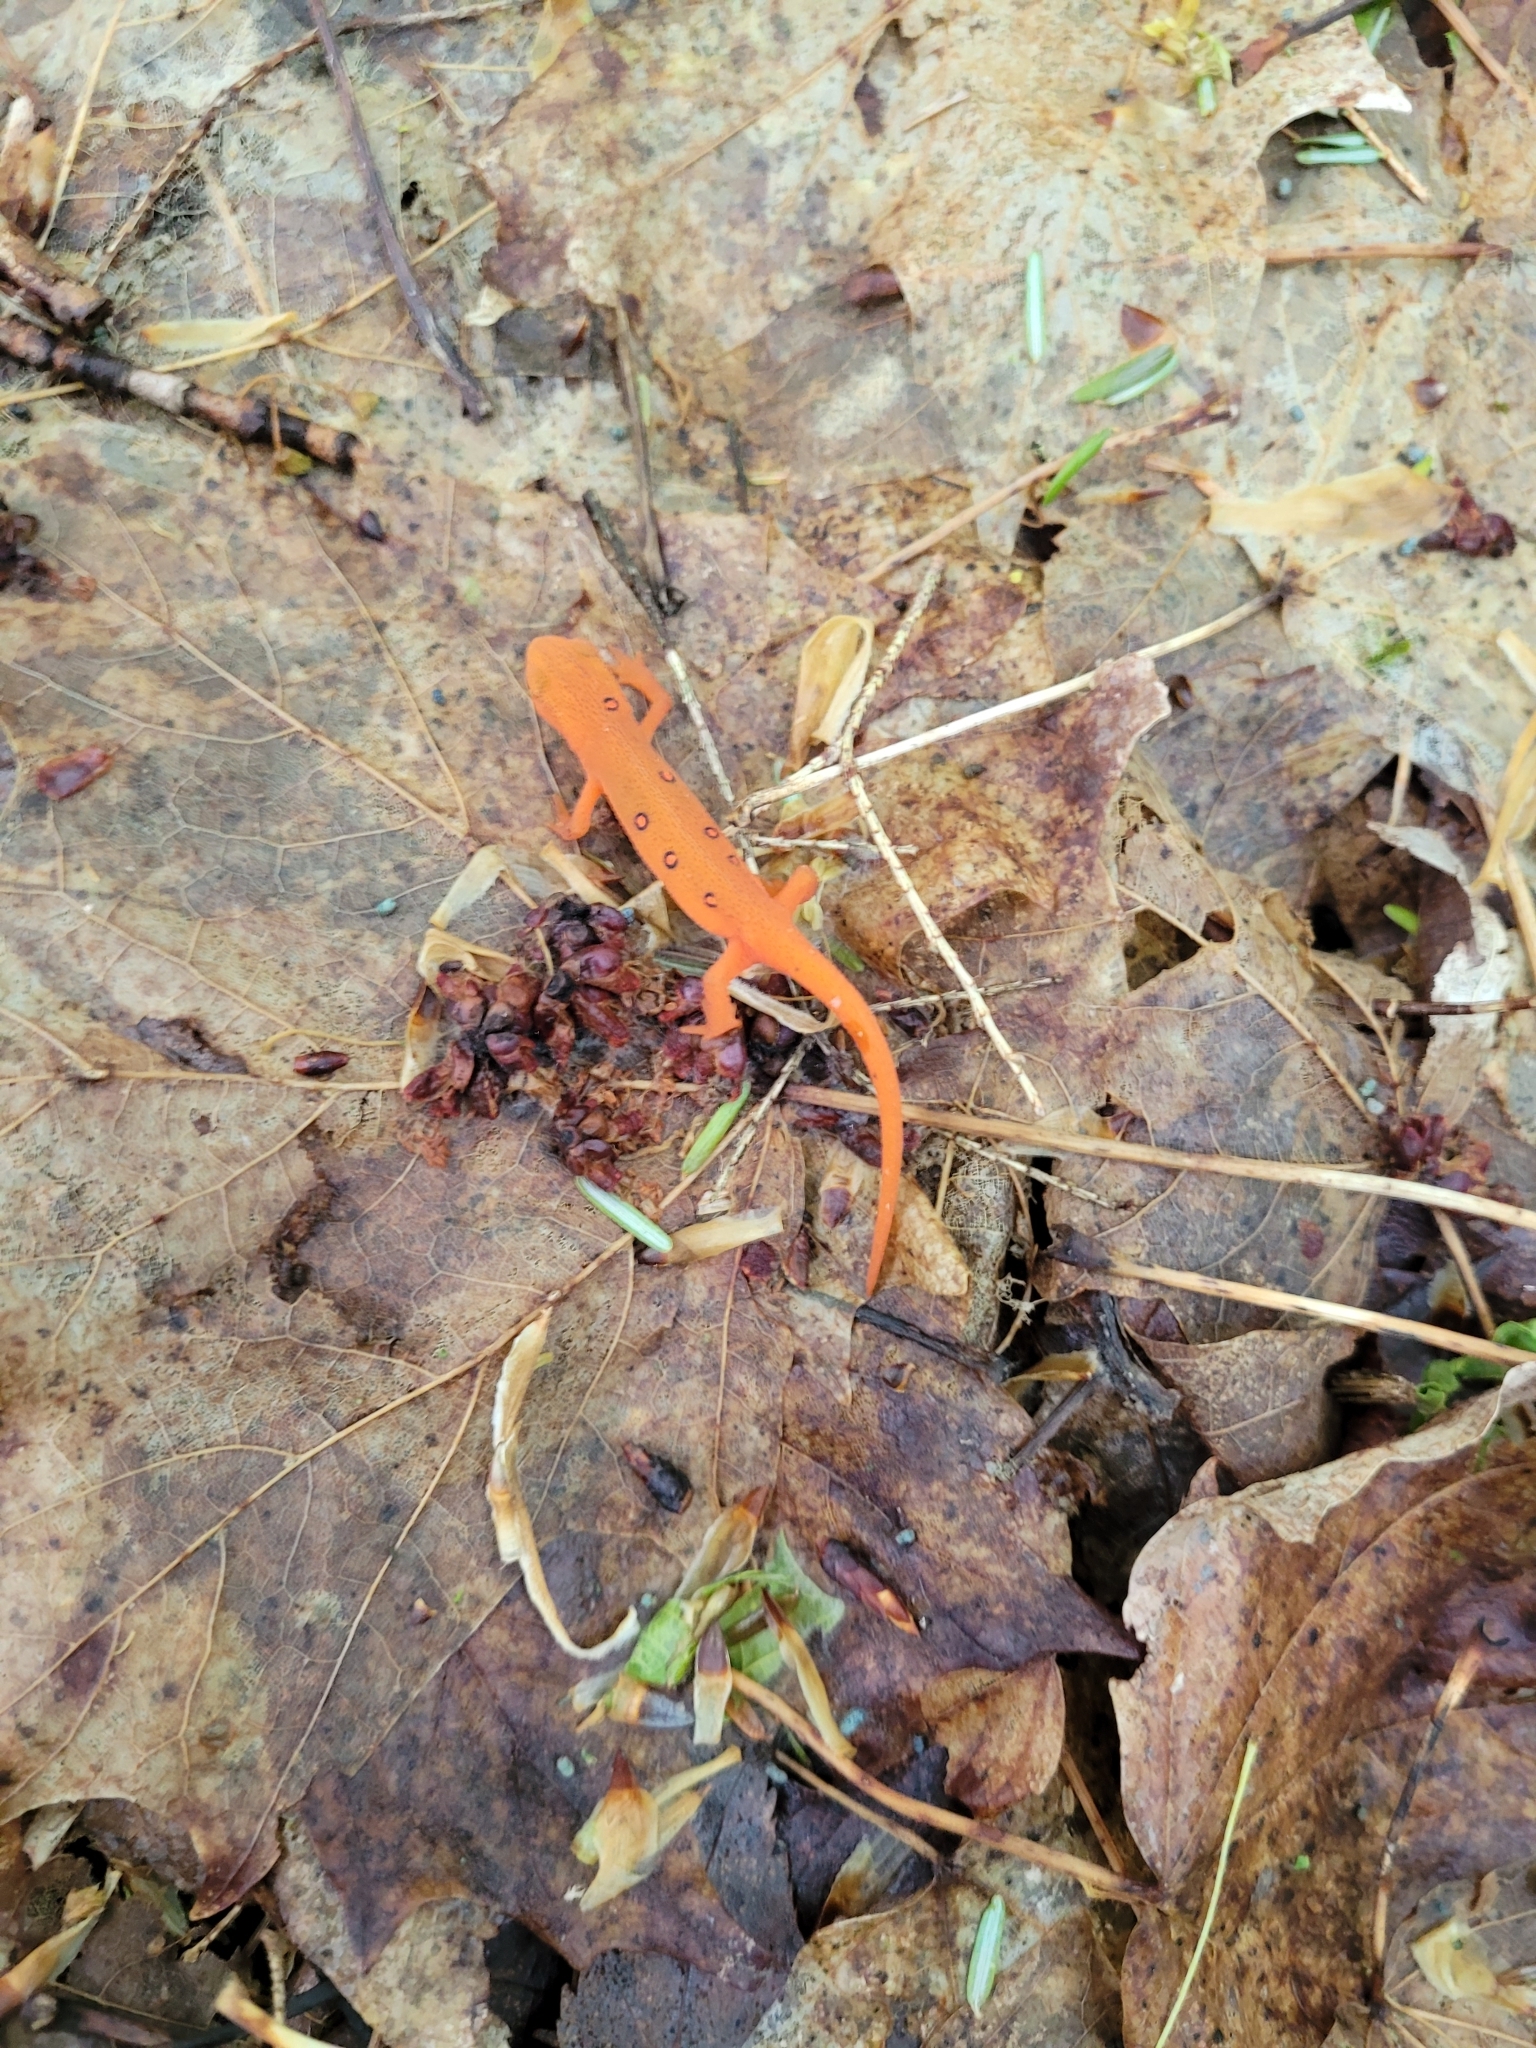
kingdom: Animalia
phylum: Chordata
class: Amphibia
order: Caudata
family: Salamandridae
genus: Notophthalmus
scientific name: Notophthalmus viridescens
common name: Eastern newt
